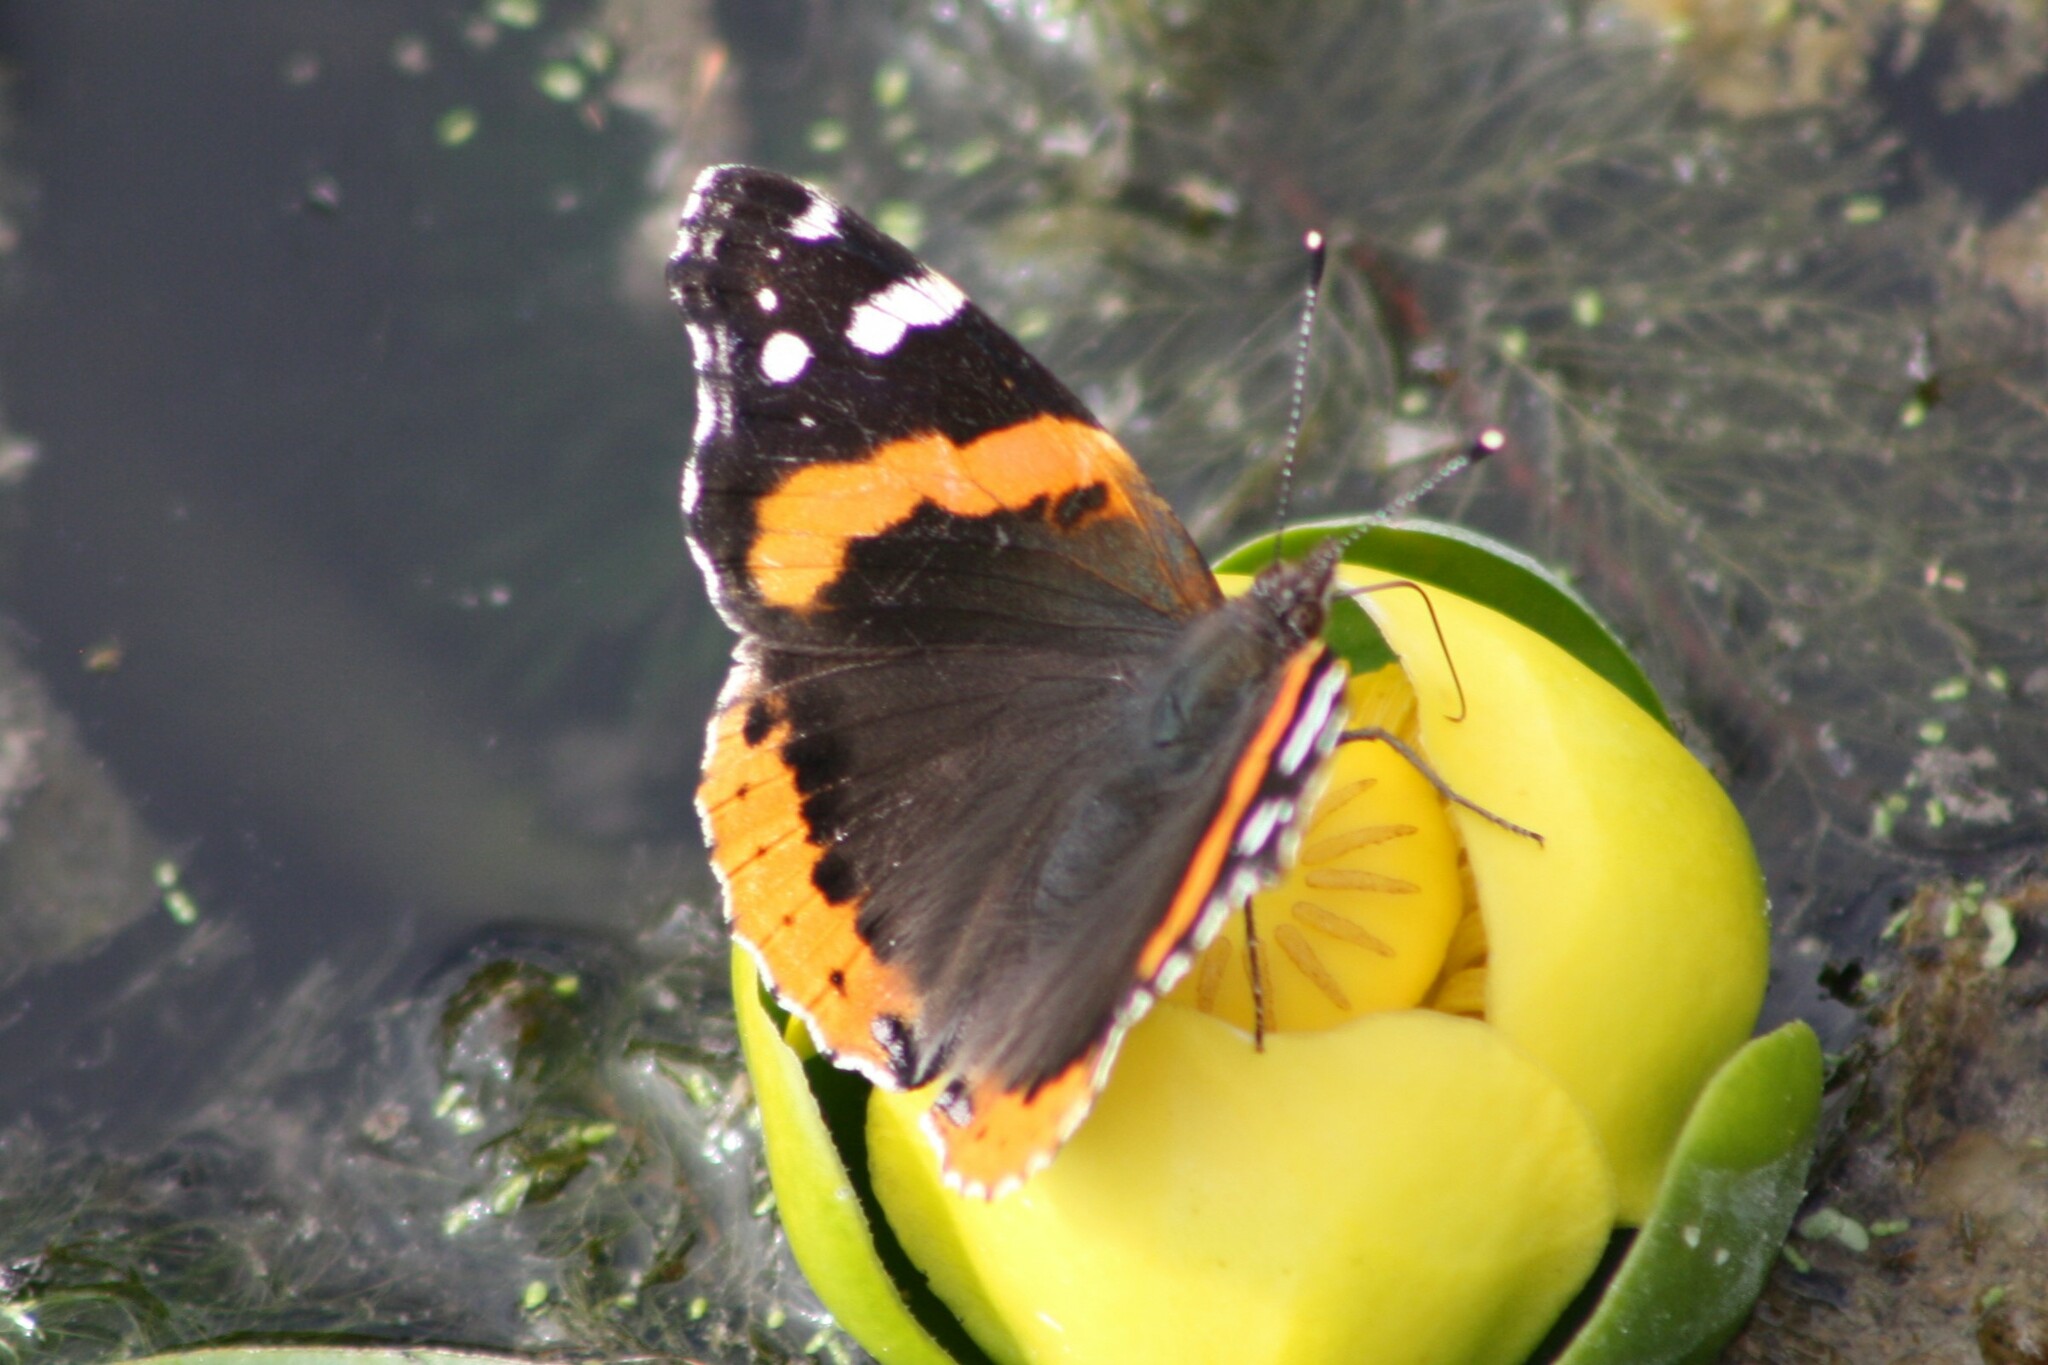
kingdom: Animalia
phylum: Arthropoda
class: Insecta
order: Lepidoptera
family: Nymphalidae
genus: Vanessa
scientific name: Vanessa atalanta
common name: Red admiral
